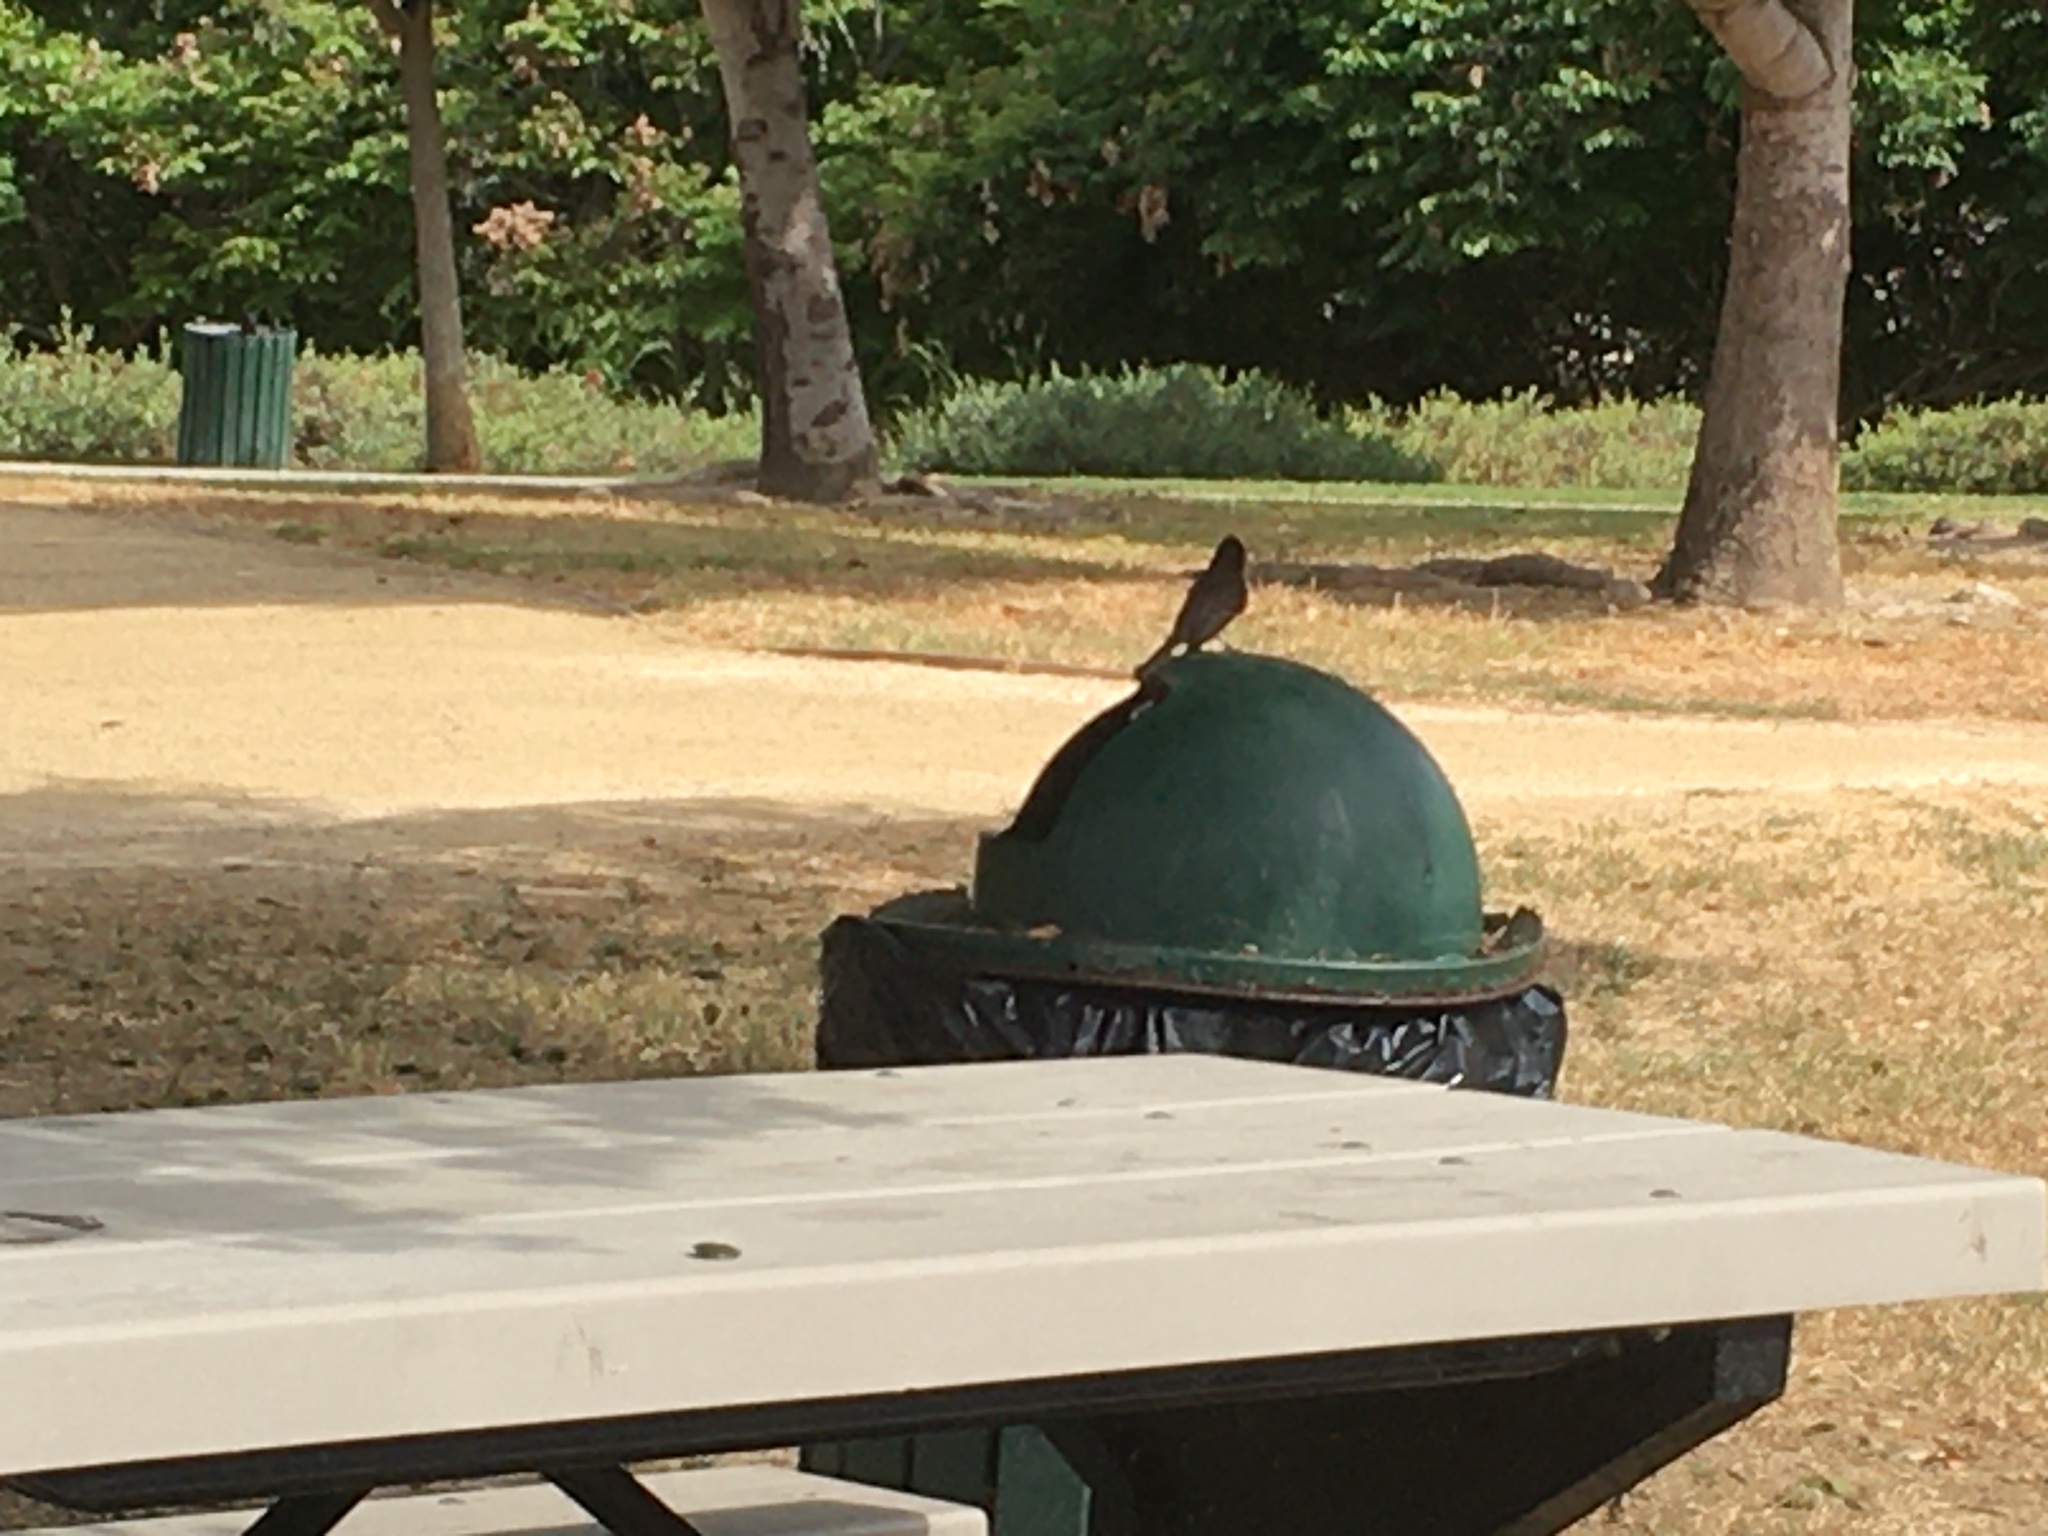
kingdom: Animalia
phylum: Chordata
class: Aves
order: Passeriformes
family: Tyrannidae
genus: Sayornis
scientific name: Sayornis nigricans
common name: Black phoebe
